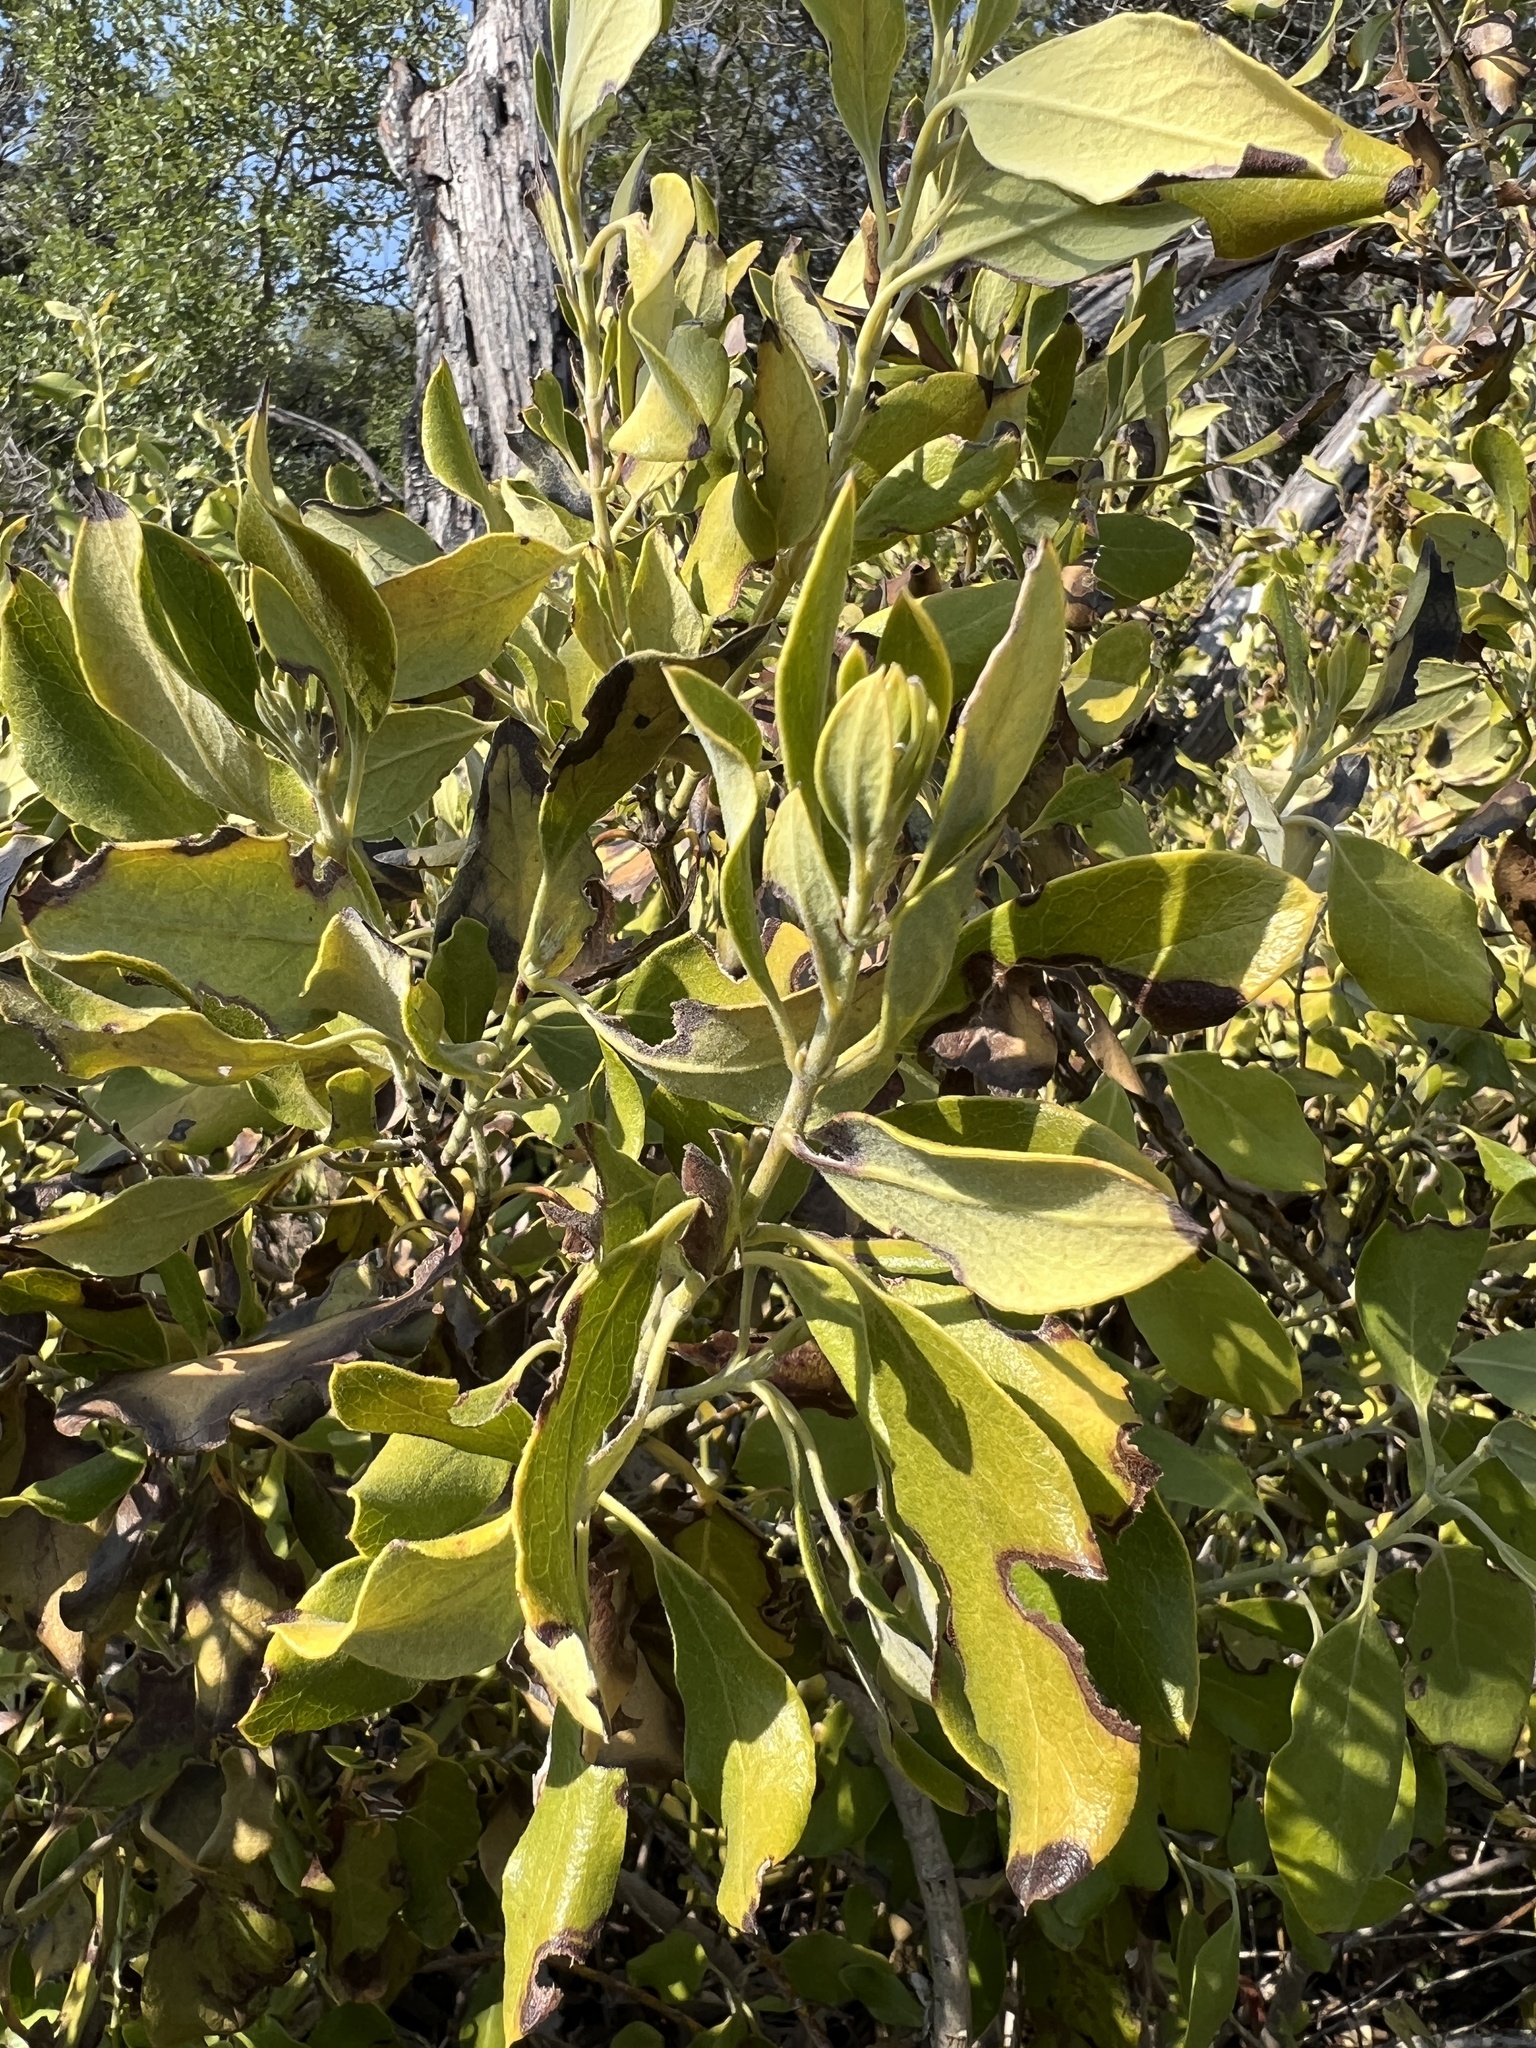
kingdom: Plantae
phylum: Tracheophyta
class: Magnoliopsida
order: Garryales
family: Garryaceae
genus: Garrya
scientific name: Garrya lindheimeri
